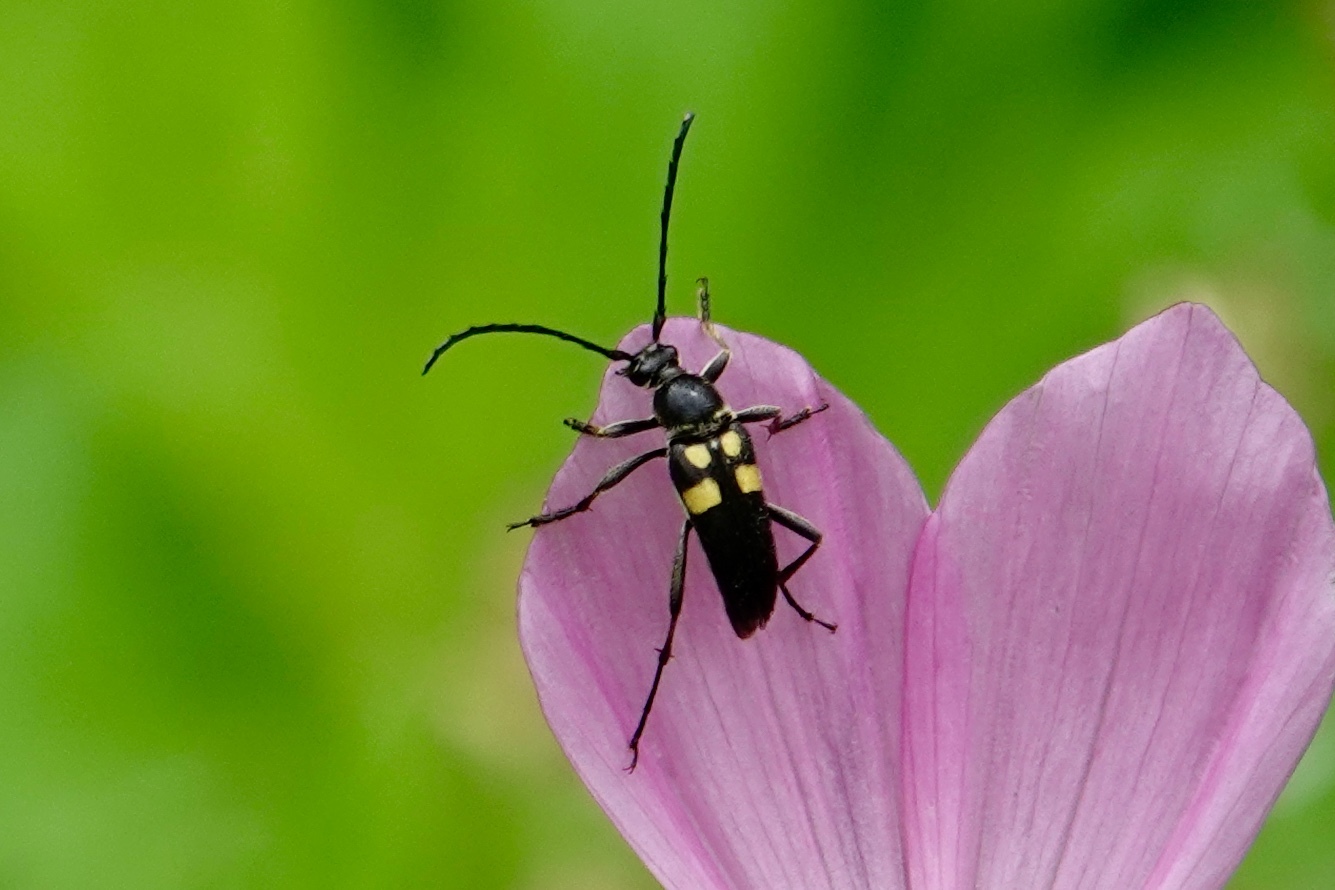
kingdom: Animalia
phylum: Arthropoda
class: Insecta
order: Coleoptera
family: Cerambycidae
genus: Typocerus
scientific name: Typocerus lunulatus
